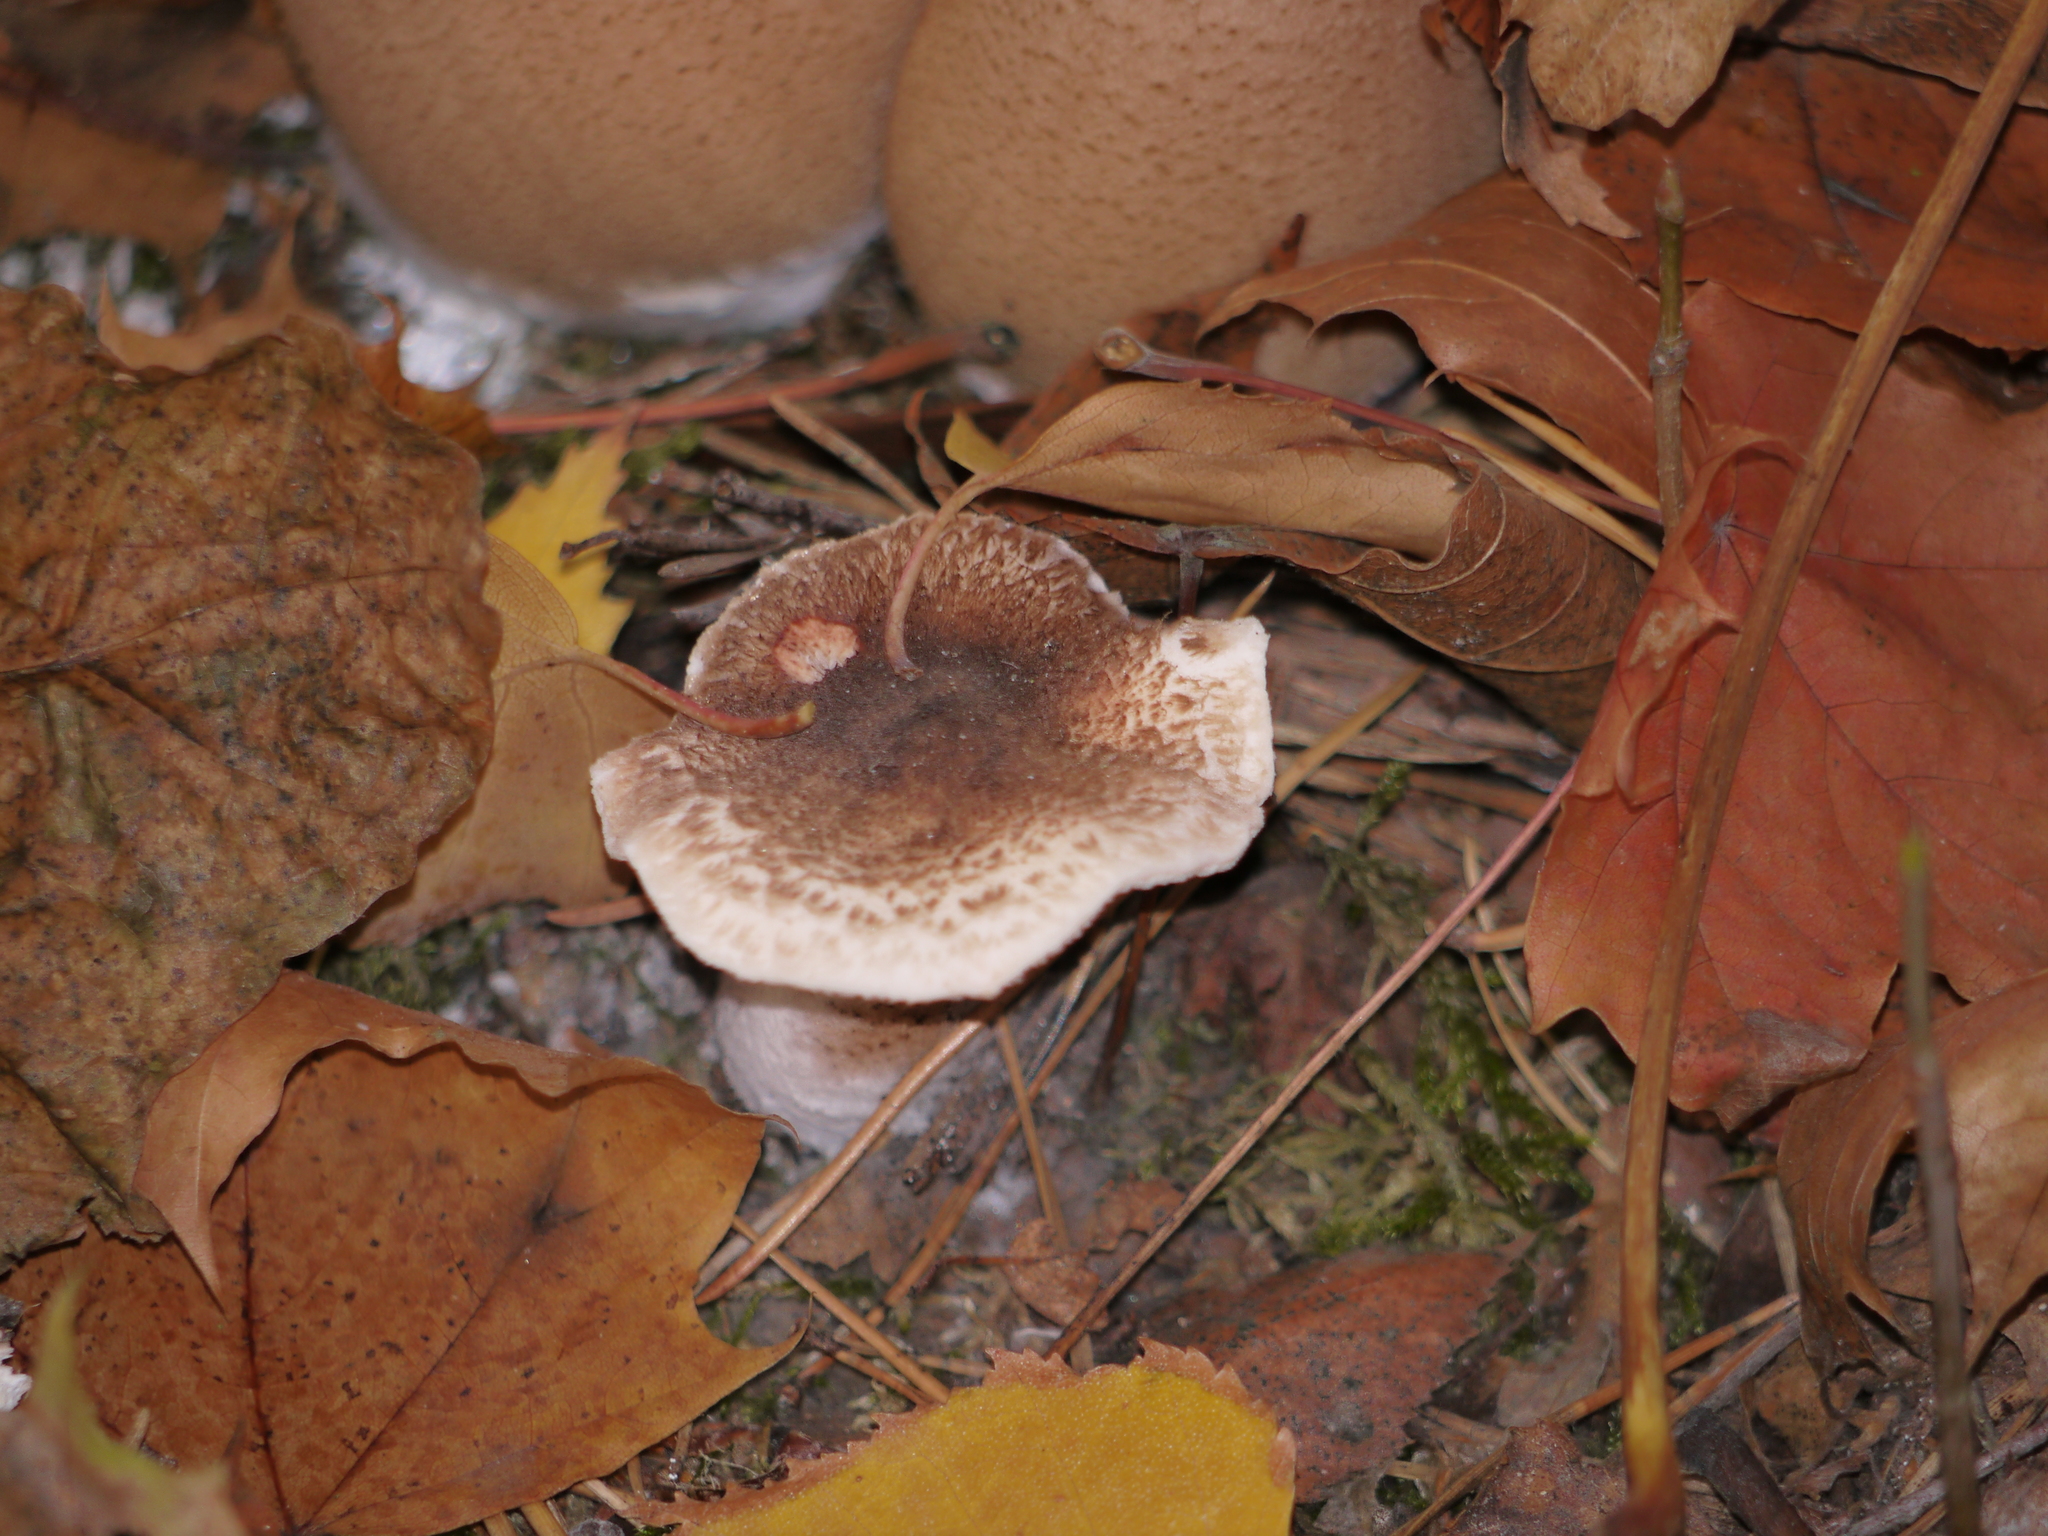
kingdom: Fungi
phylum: Basidiomycota
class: Agaricomycetes
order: Agaricales
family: Physalacriaceae
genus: Armillaria
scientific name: Armillaria mellea
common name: Honey fungus
